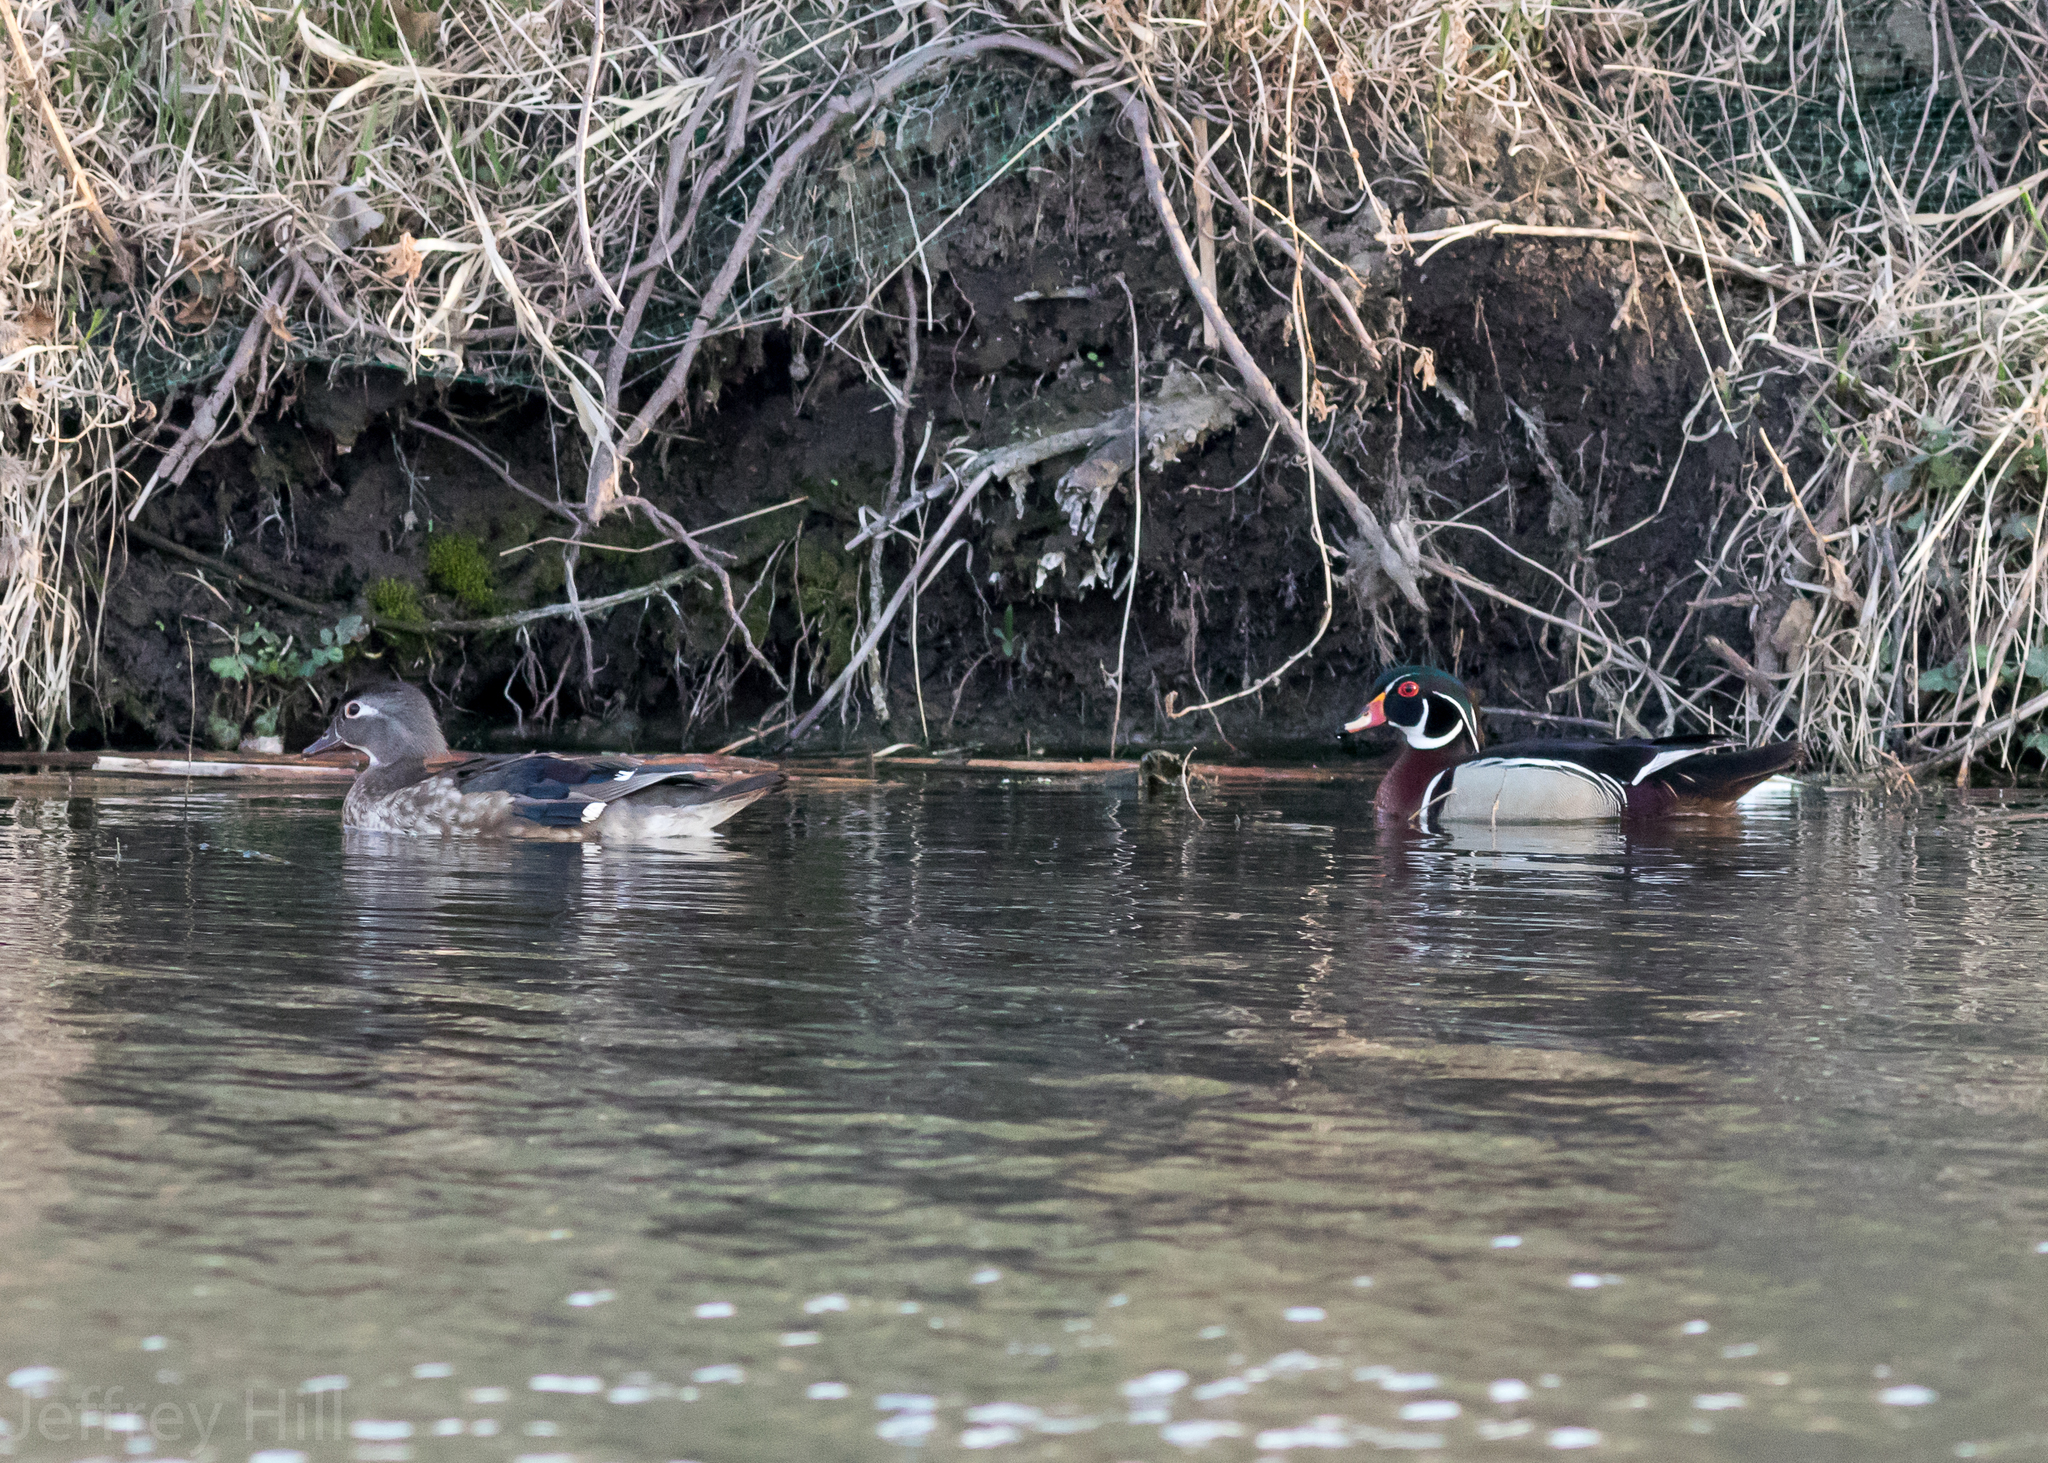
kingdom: Animalia
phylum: Chordata
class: Aves
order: Anseriformes
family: Anatidae
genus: Aix
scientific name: Aix sponsa
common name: Wood duck
